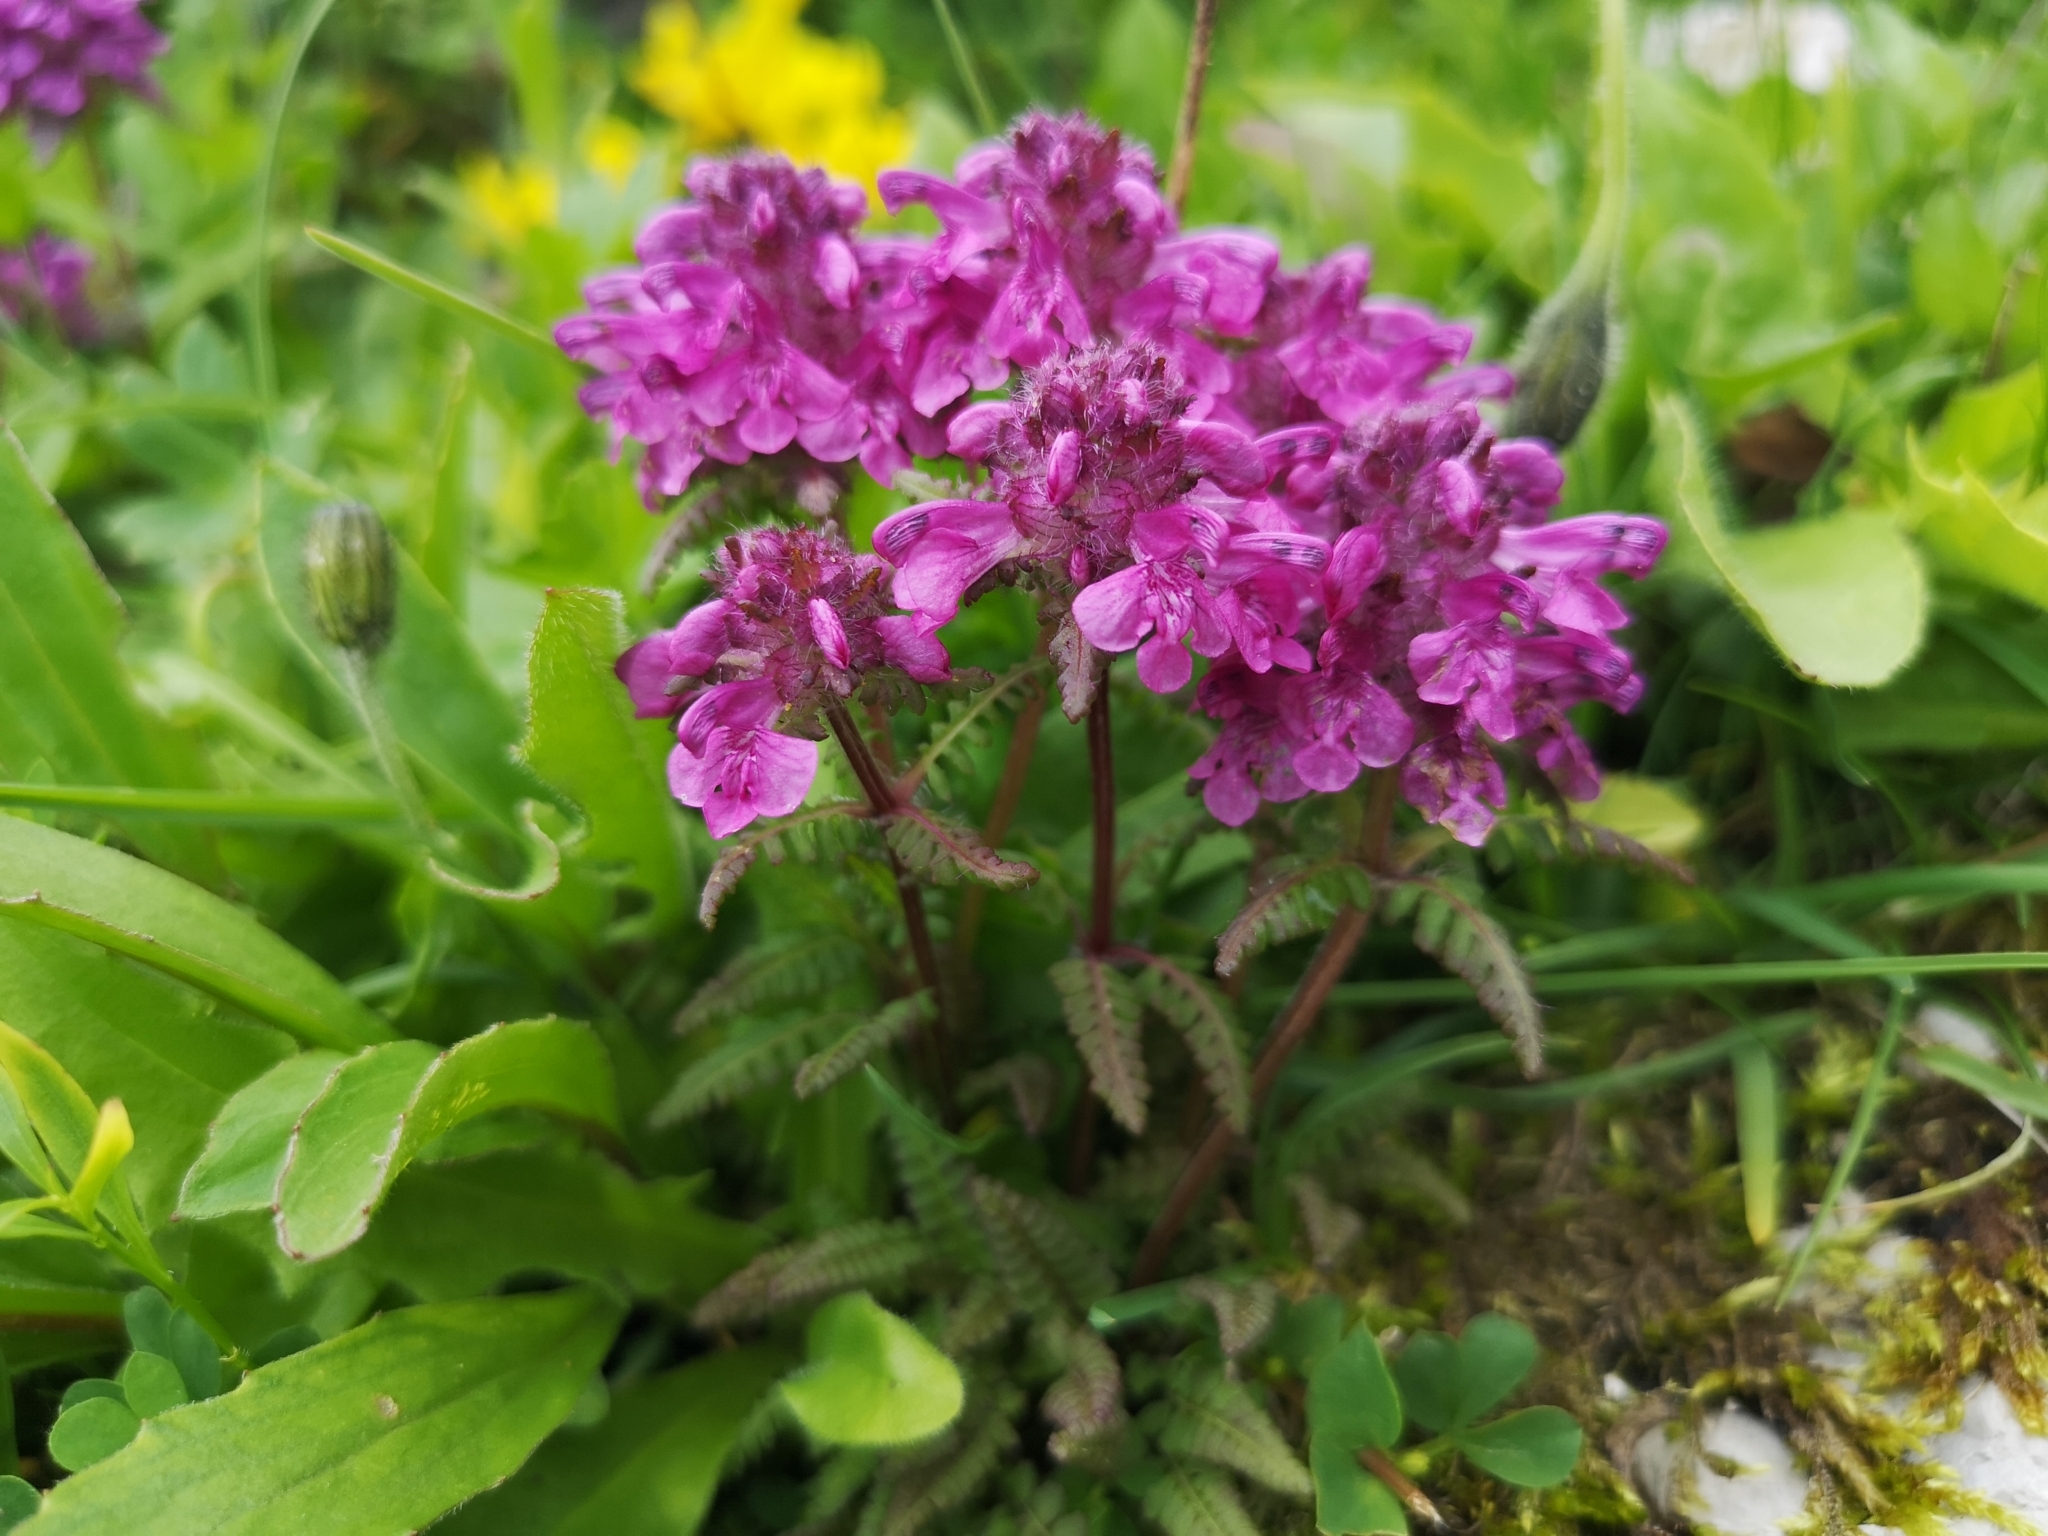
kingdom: Plantae
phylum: Tracheophyta
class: Magnoliopsida
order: Lamiales
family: Orobanchaceae
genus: Pedicularis
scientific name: Pedicularis verticillata
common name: Whorled lousewort
